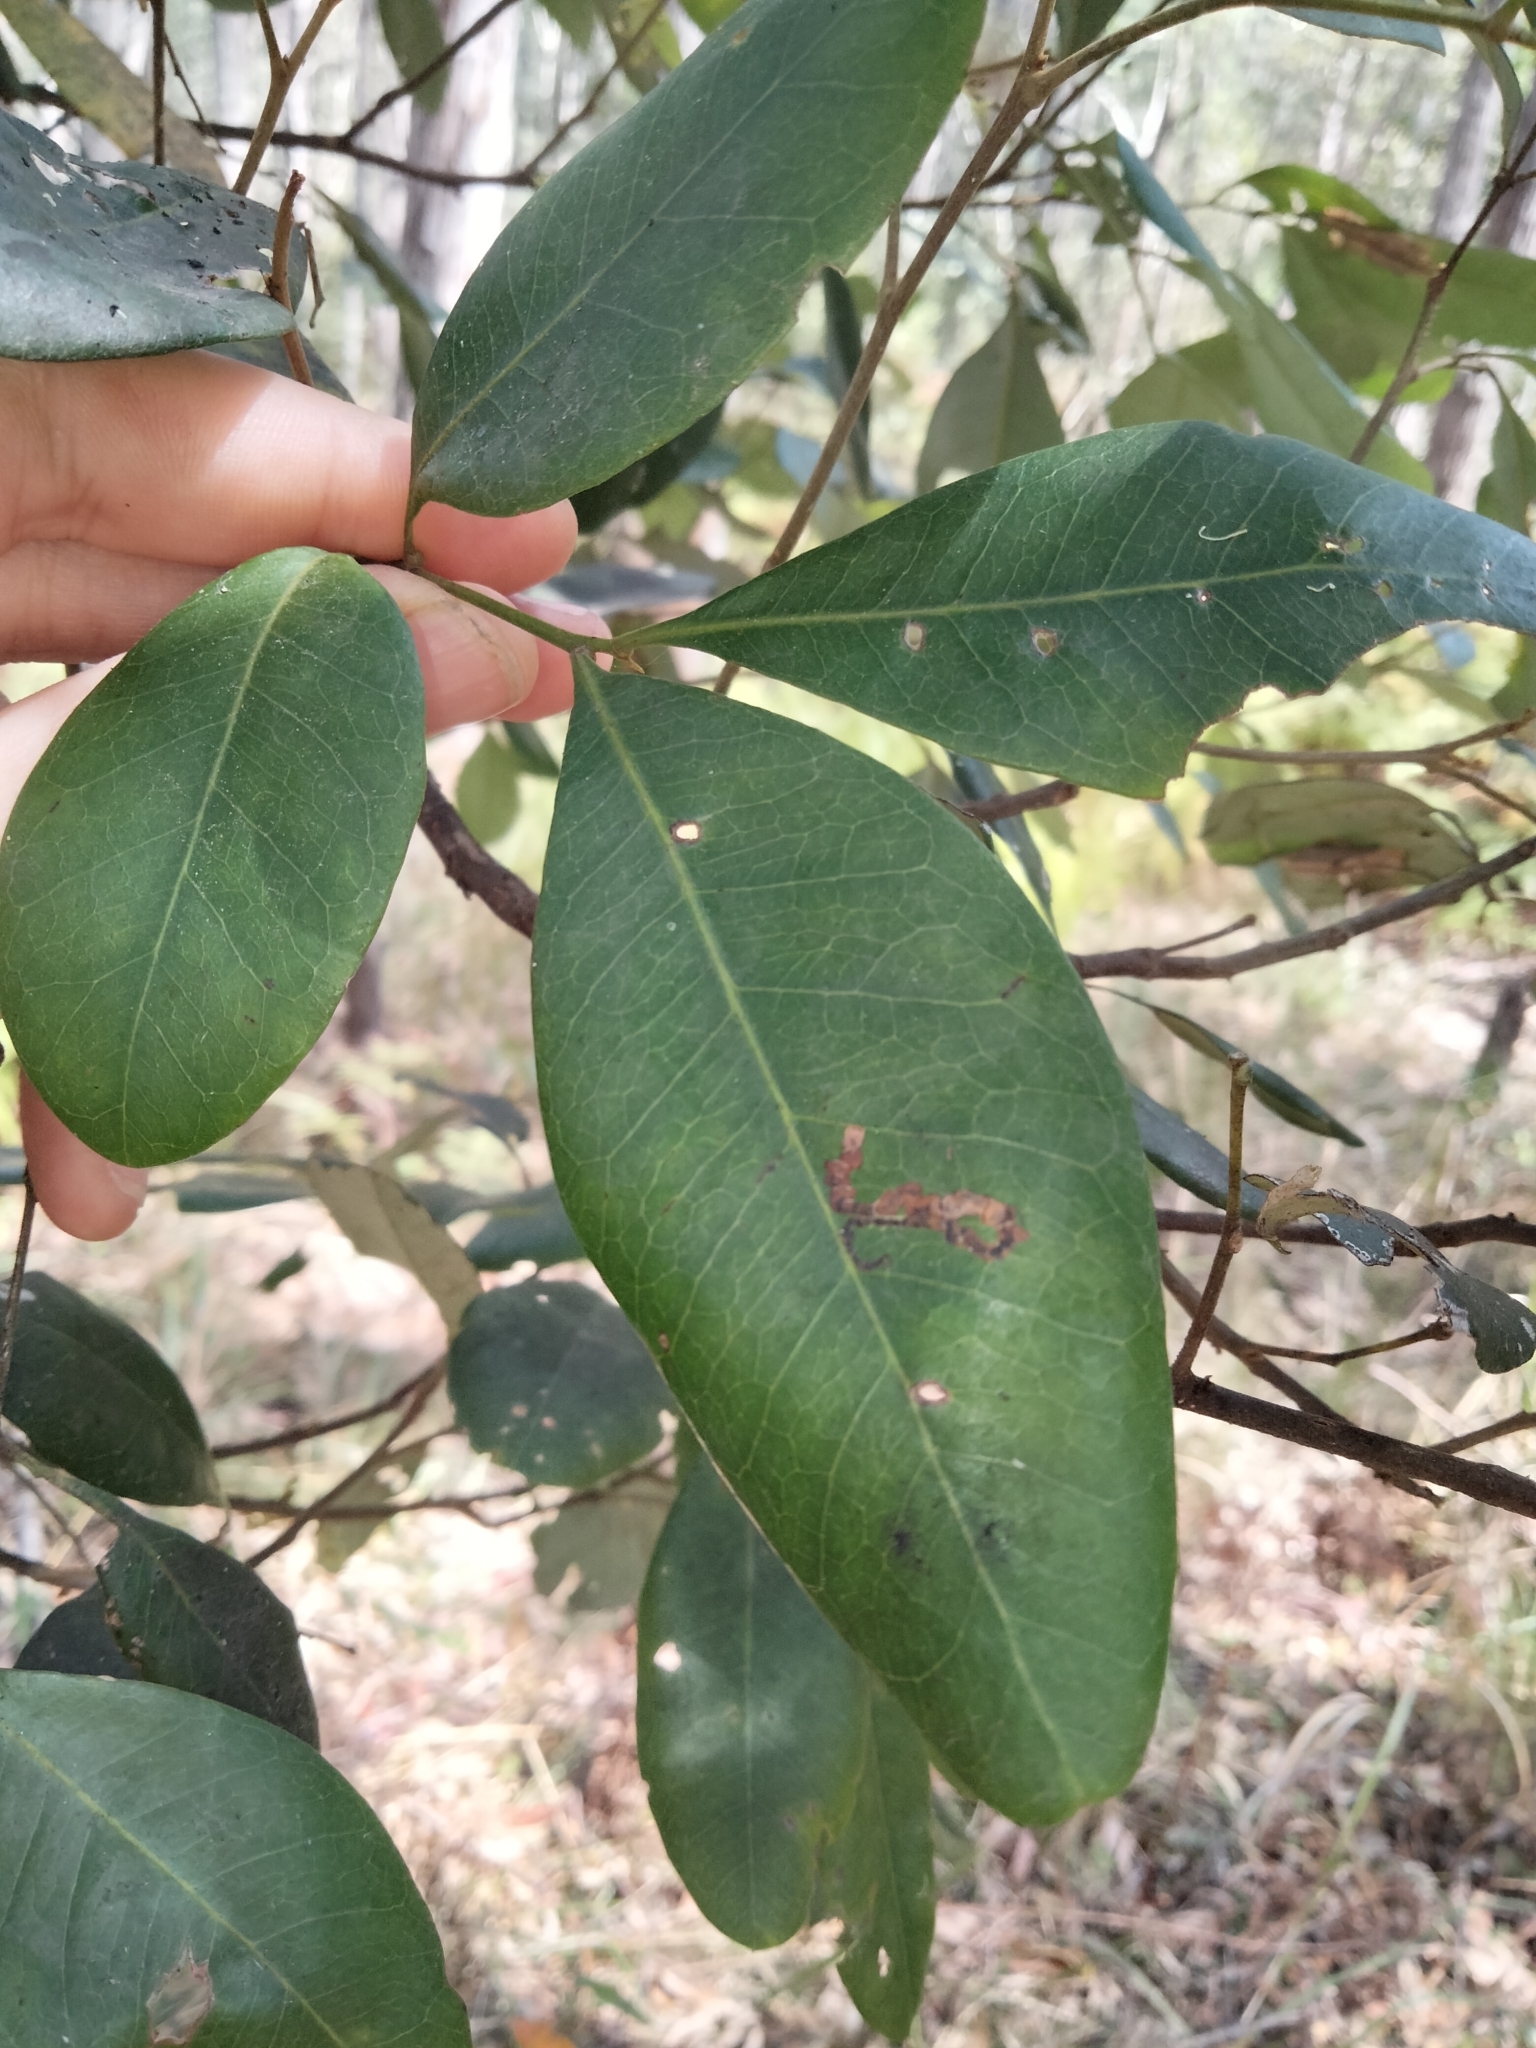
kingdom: Plantae
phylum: Tracheophyta
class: Magnoliopsida
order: Sapindales
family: Sapindaceae
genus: Guioa
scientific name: Guioa semiglauca
